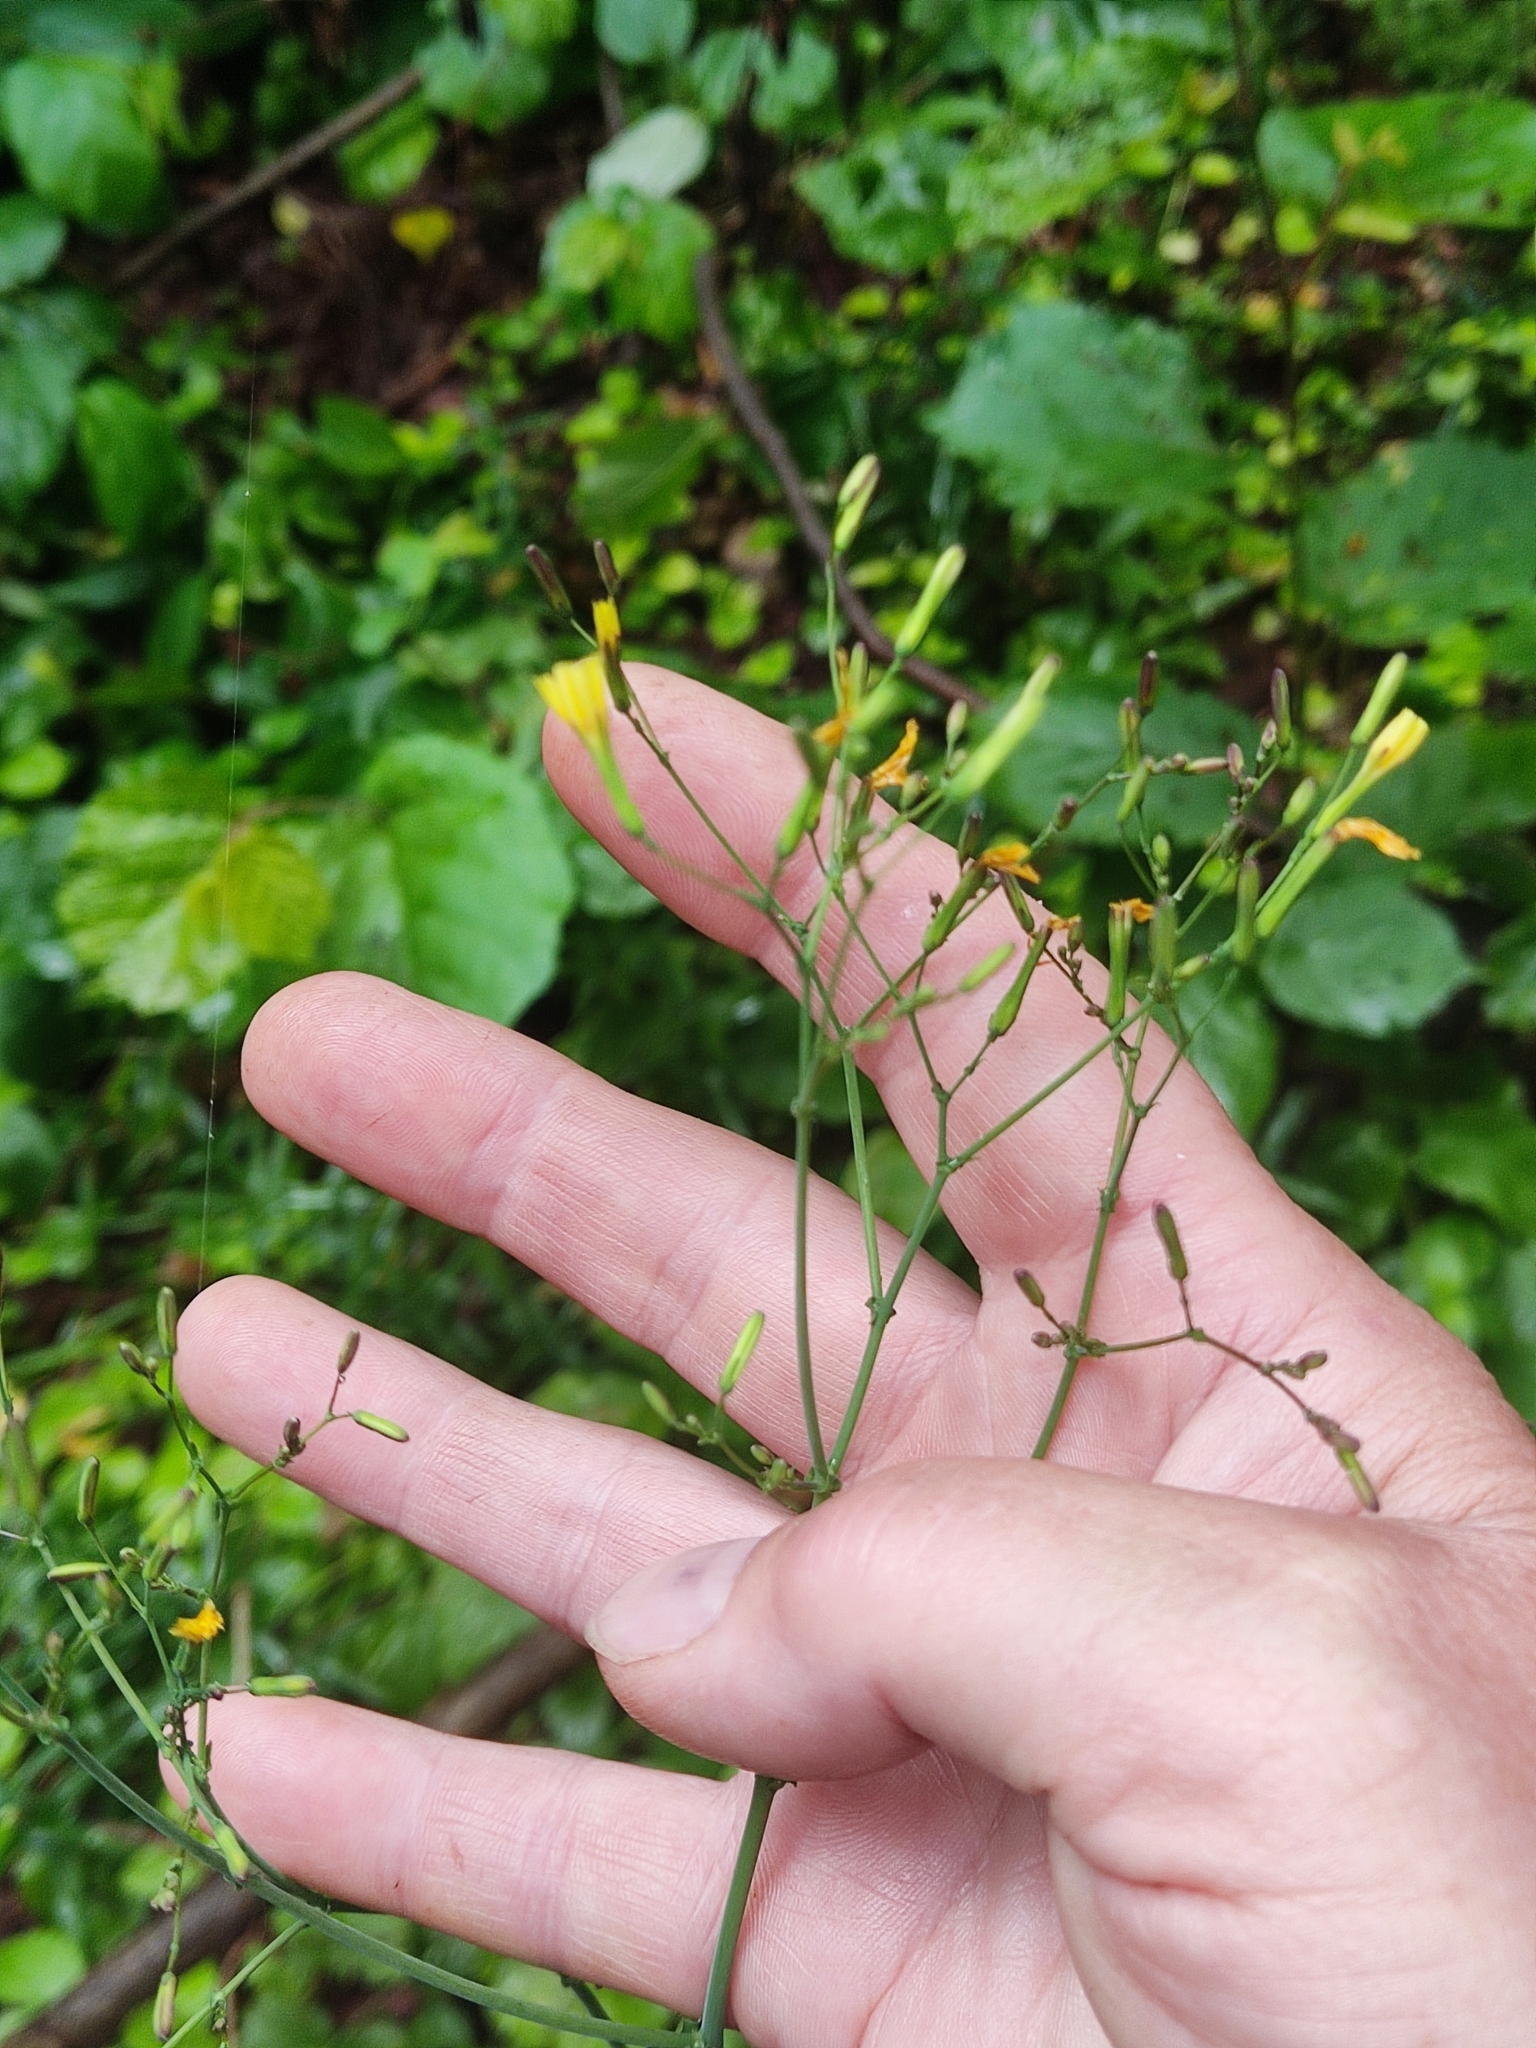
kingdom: Plantae
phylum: Tracheophyta
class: Magnoliopsida
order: Asterales
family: Asteraceae
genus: Mycelis
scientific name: Mycelis muralis
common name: Wall lettuce
